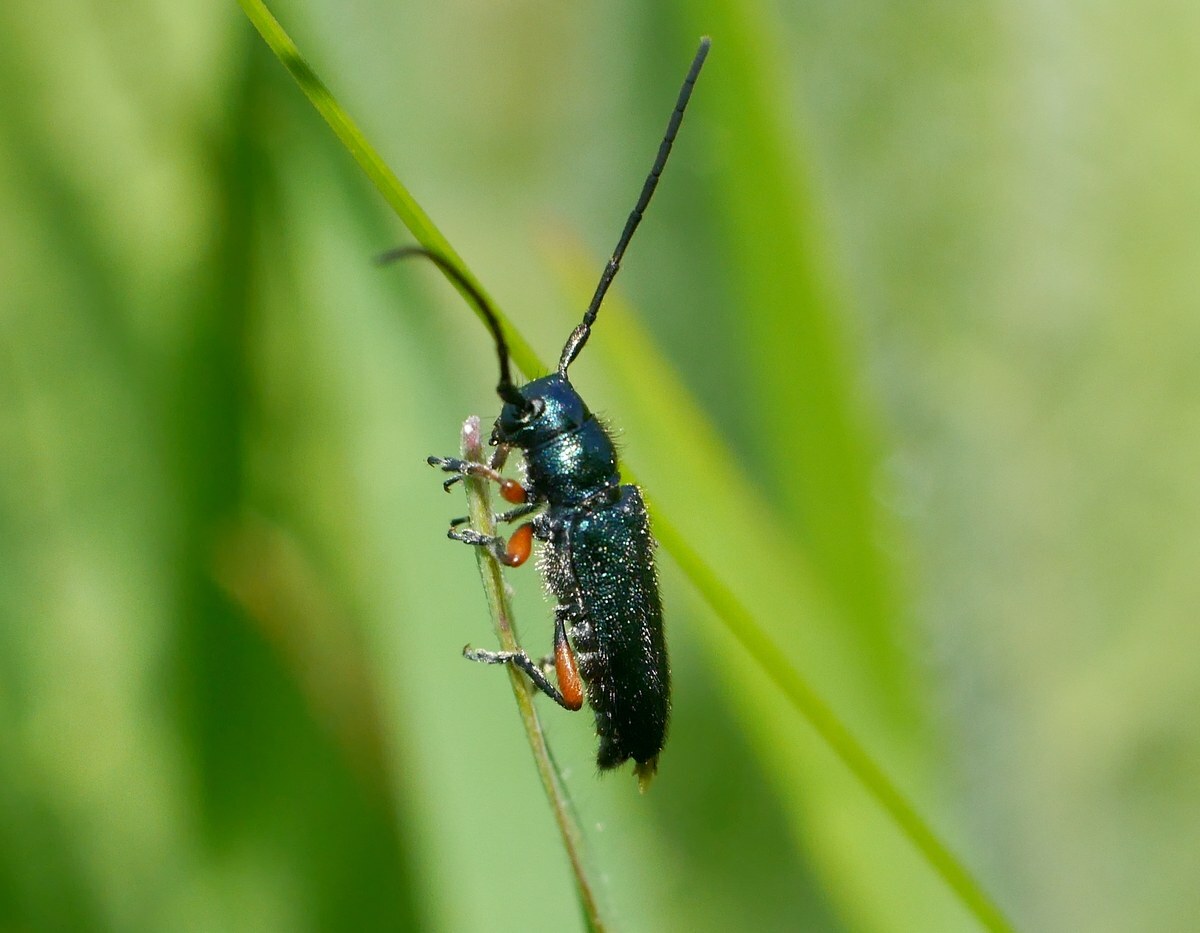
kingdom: Animalia
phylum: Arthropoda
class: Insecta
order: Coleoptera
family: Cerambycidae
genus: Phytoecia
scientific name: Phytoecia millefolii
